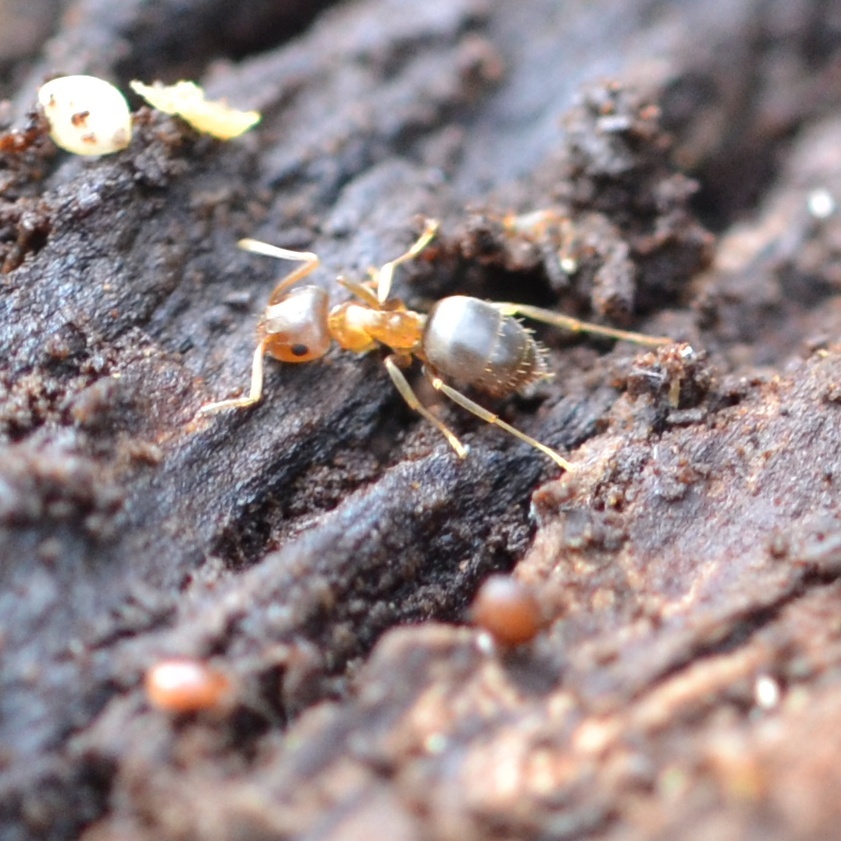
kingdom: Animalia
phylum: Arthropoda
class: Insecta
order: Hymenoptera
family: Formicidae
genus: Lasius
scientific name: Lasius brunneus
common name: Brown ant
